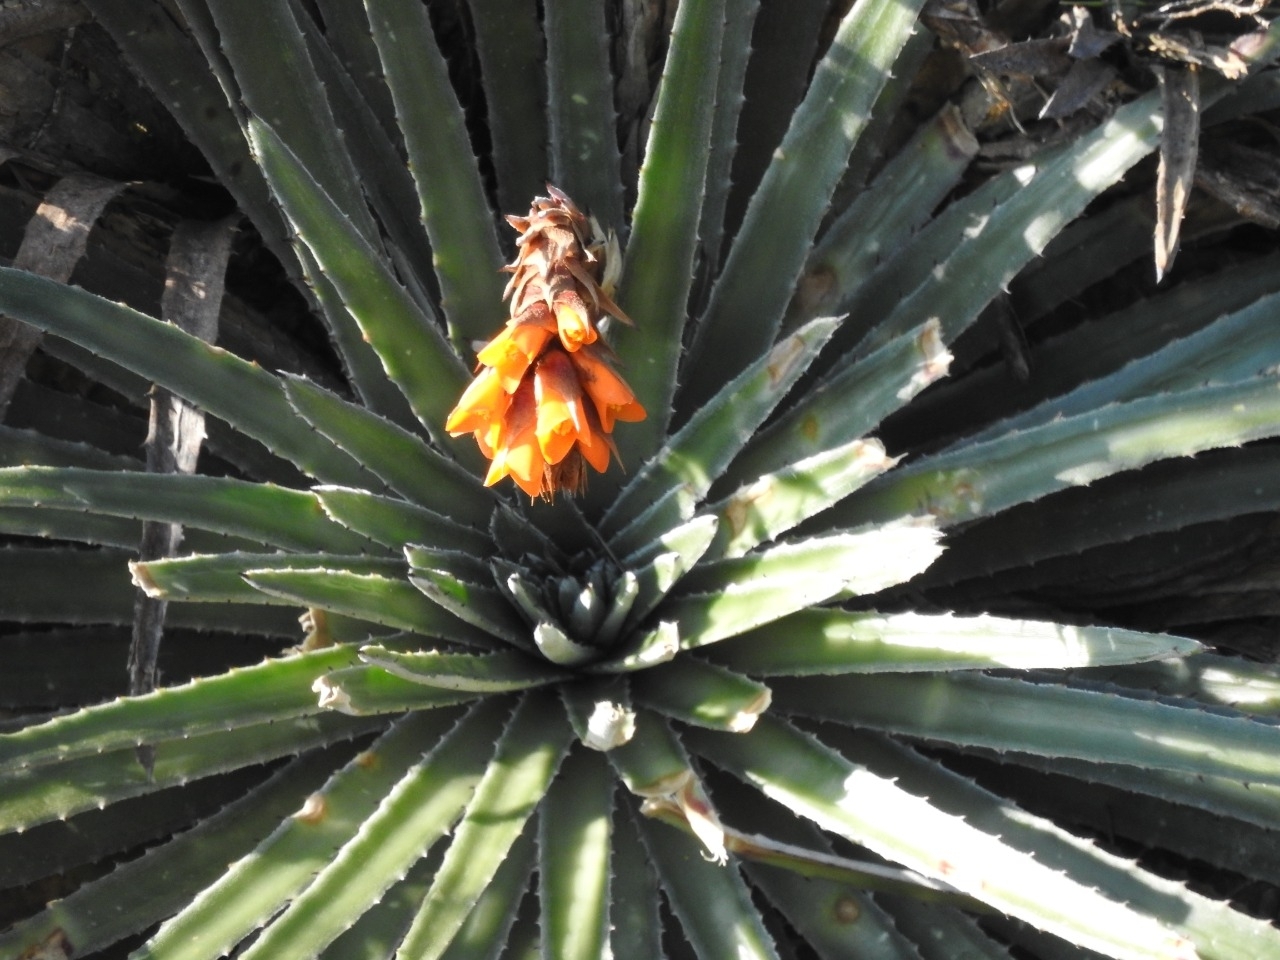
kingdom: Plantae
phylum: Tracheophyta
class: Liliopsida
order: Poales
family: Bromeliaceae
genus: Dyckia
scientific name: Dyckia reitzii
